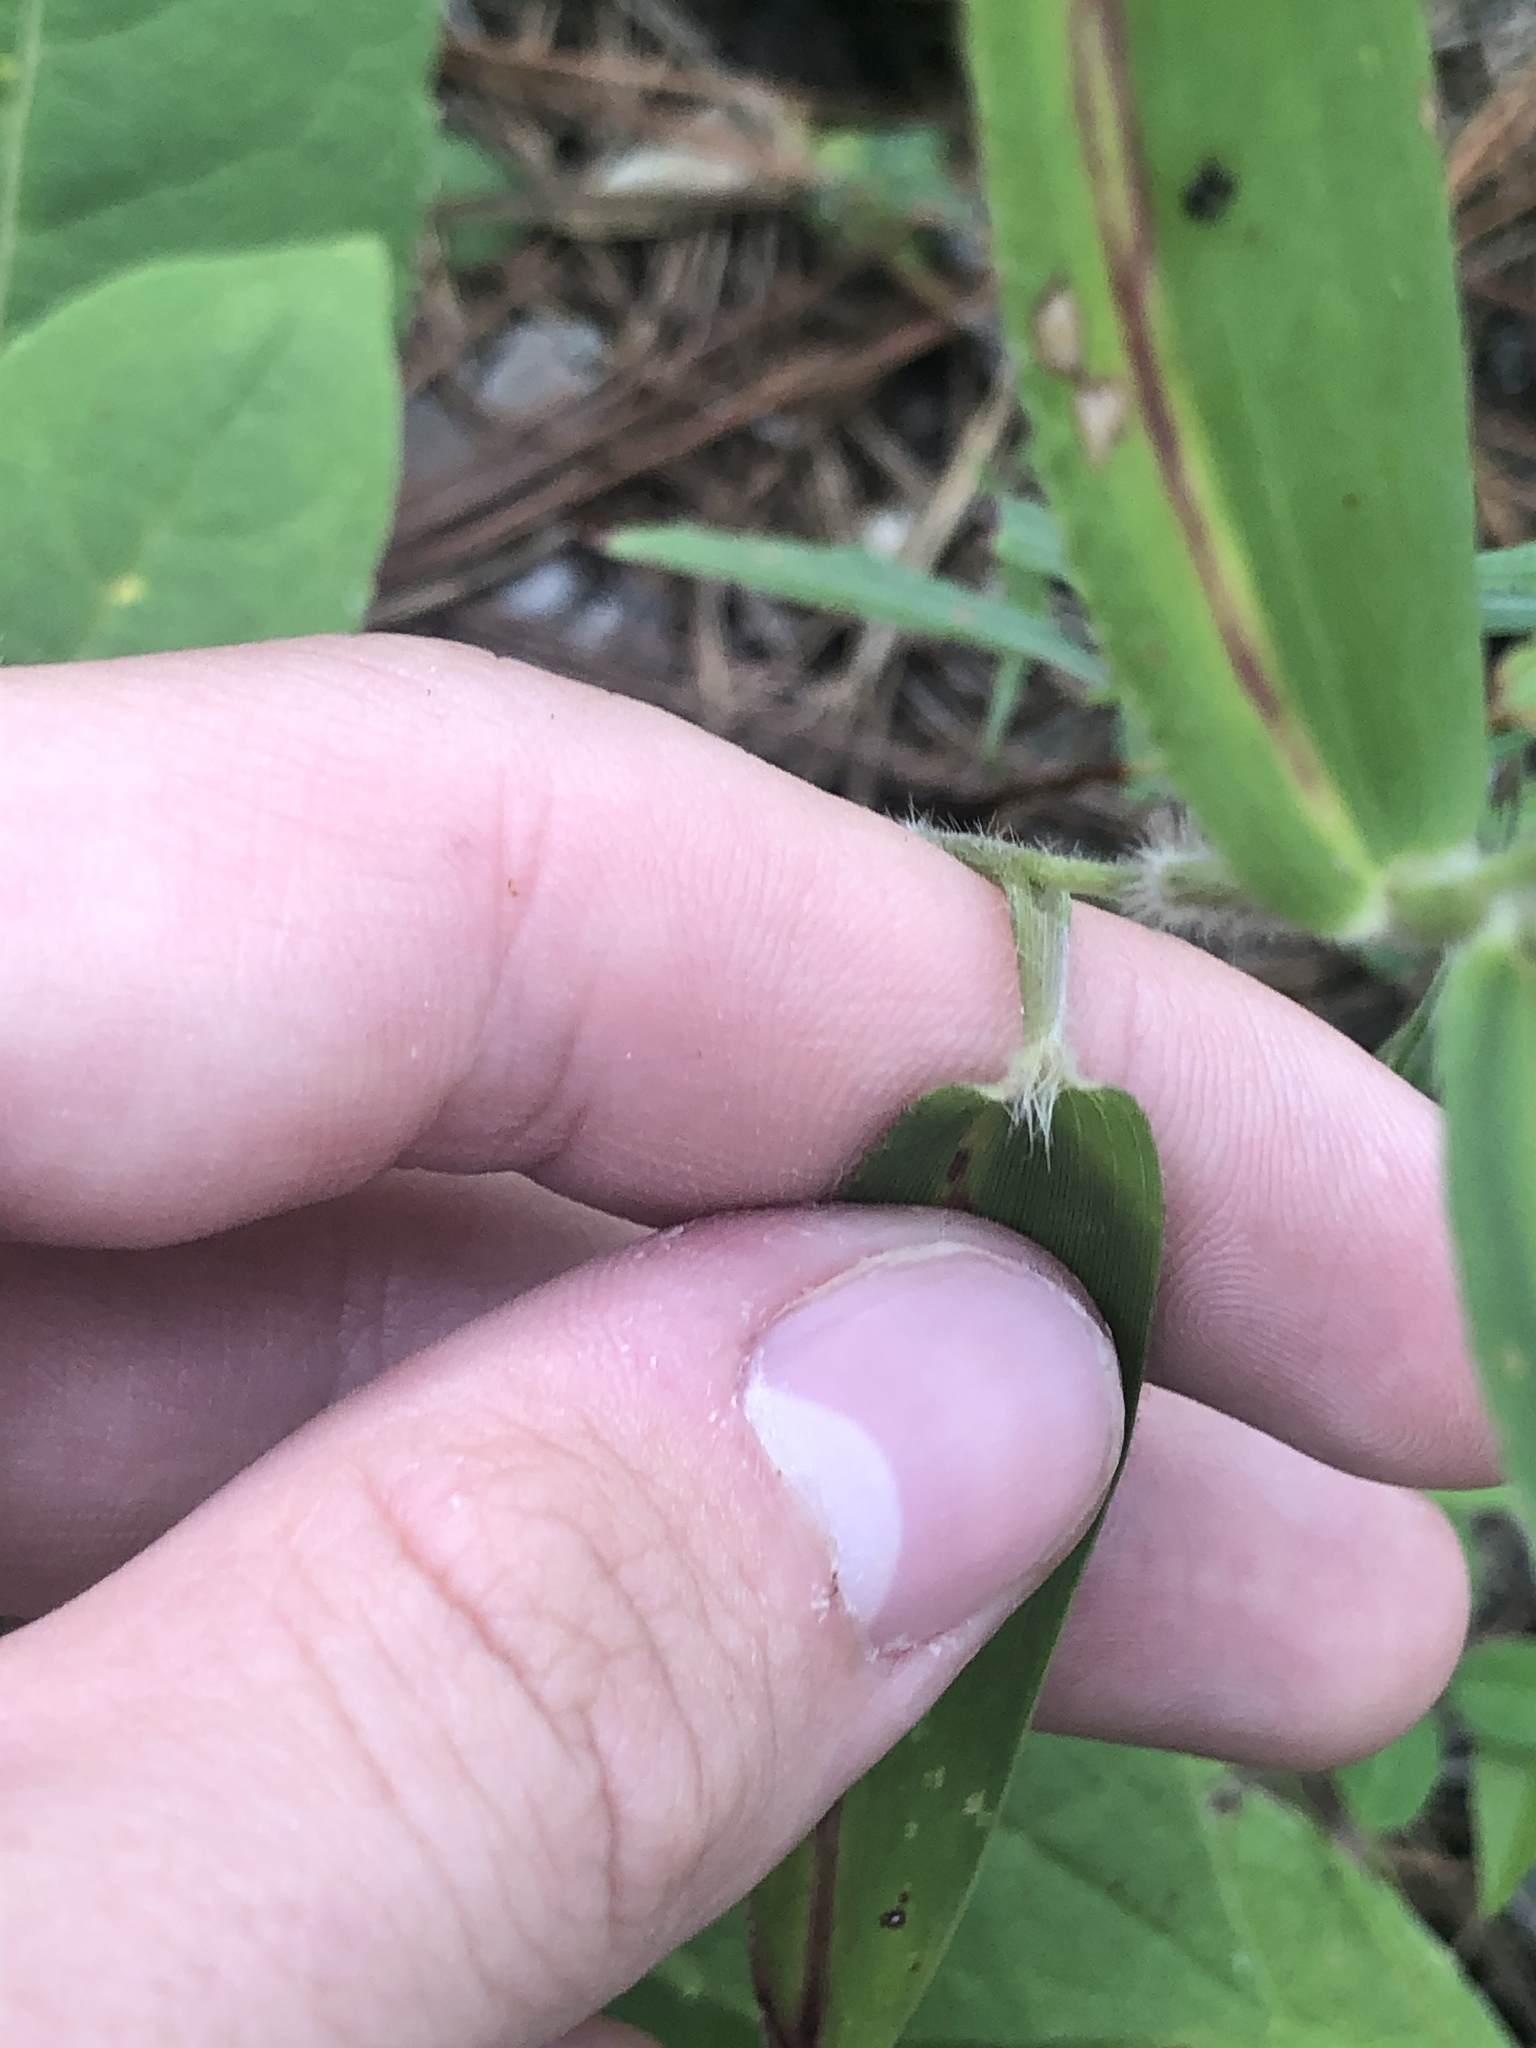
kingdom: Plantae
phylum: Tracheophyta
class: Liliopsida
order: Poales
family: Poaceae
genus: Dichanthelium
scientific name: Dichanthelium ravenelii
